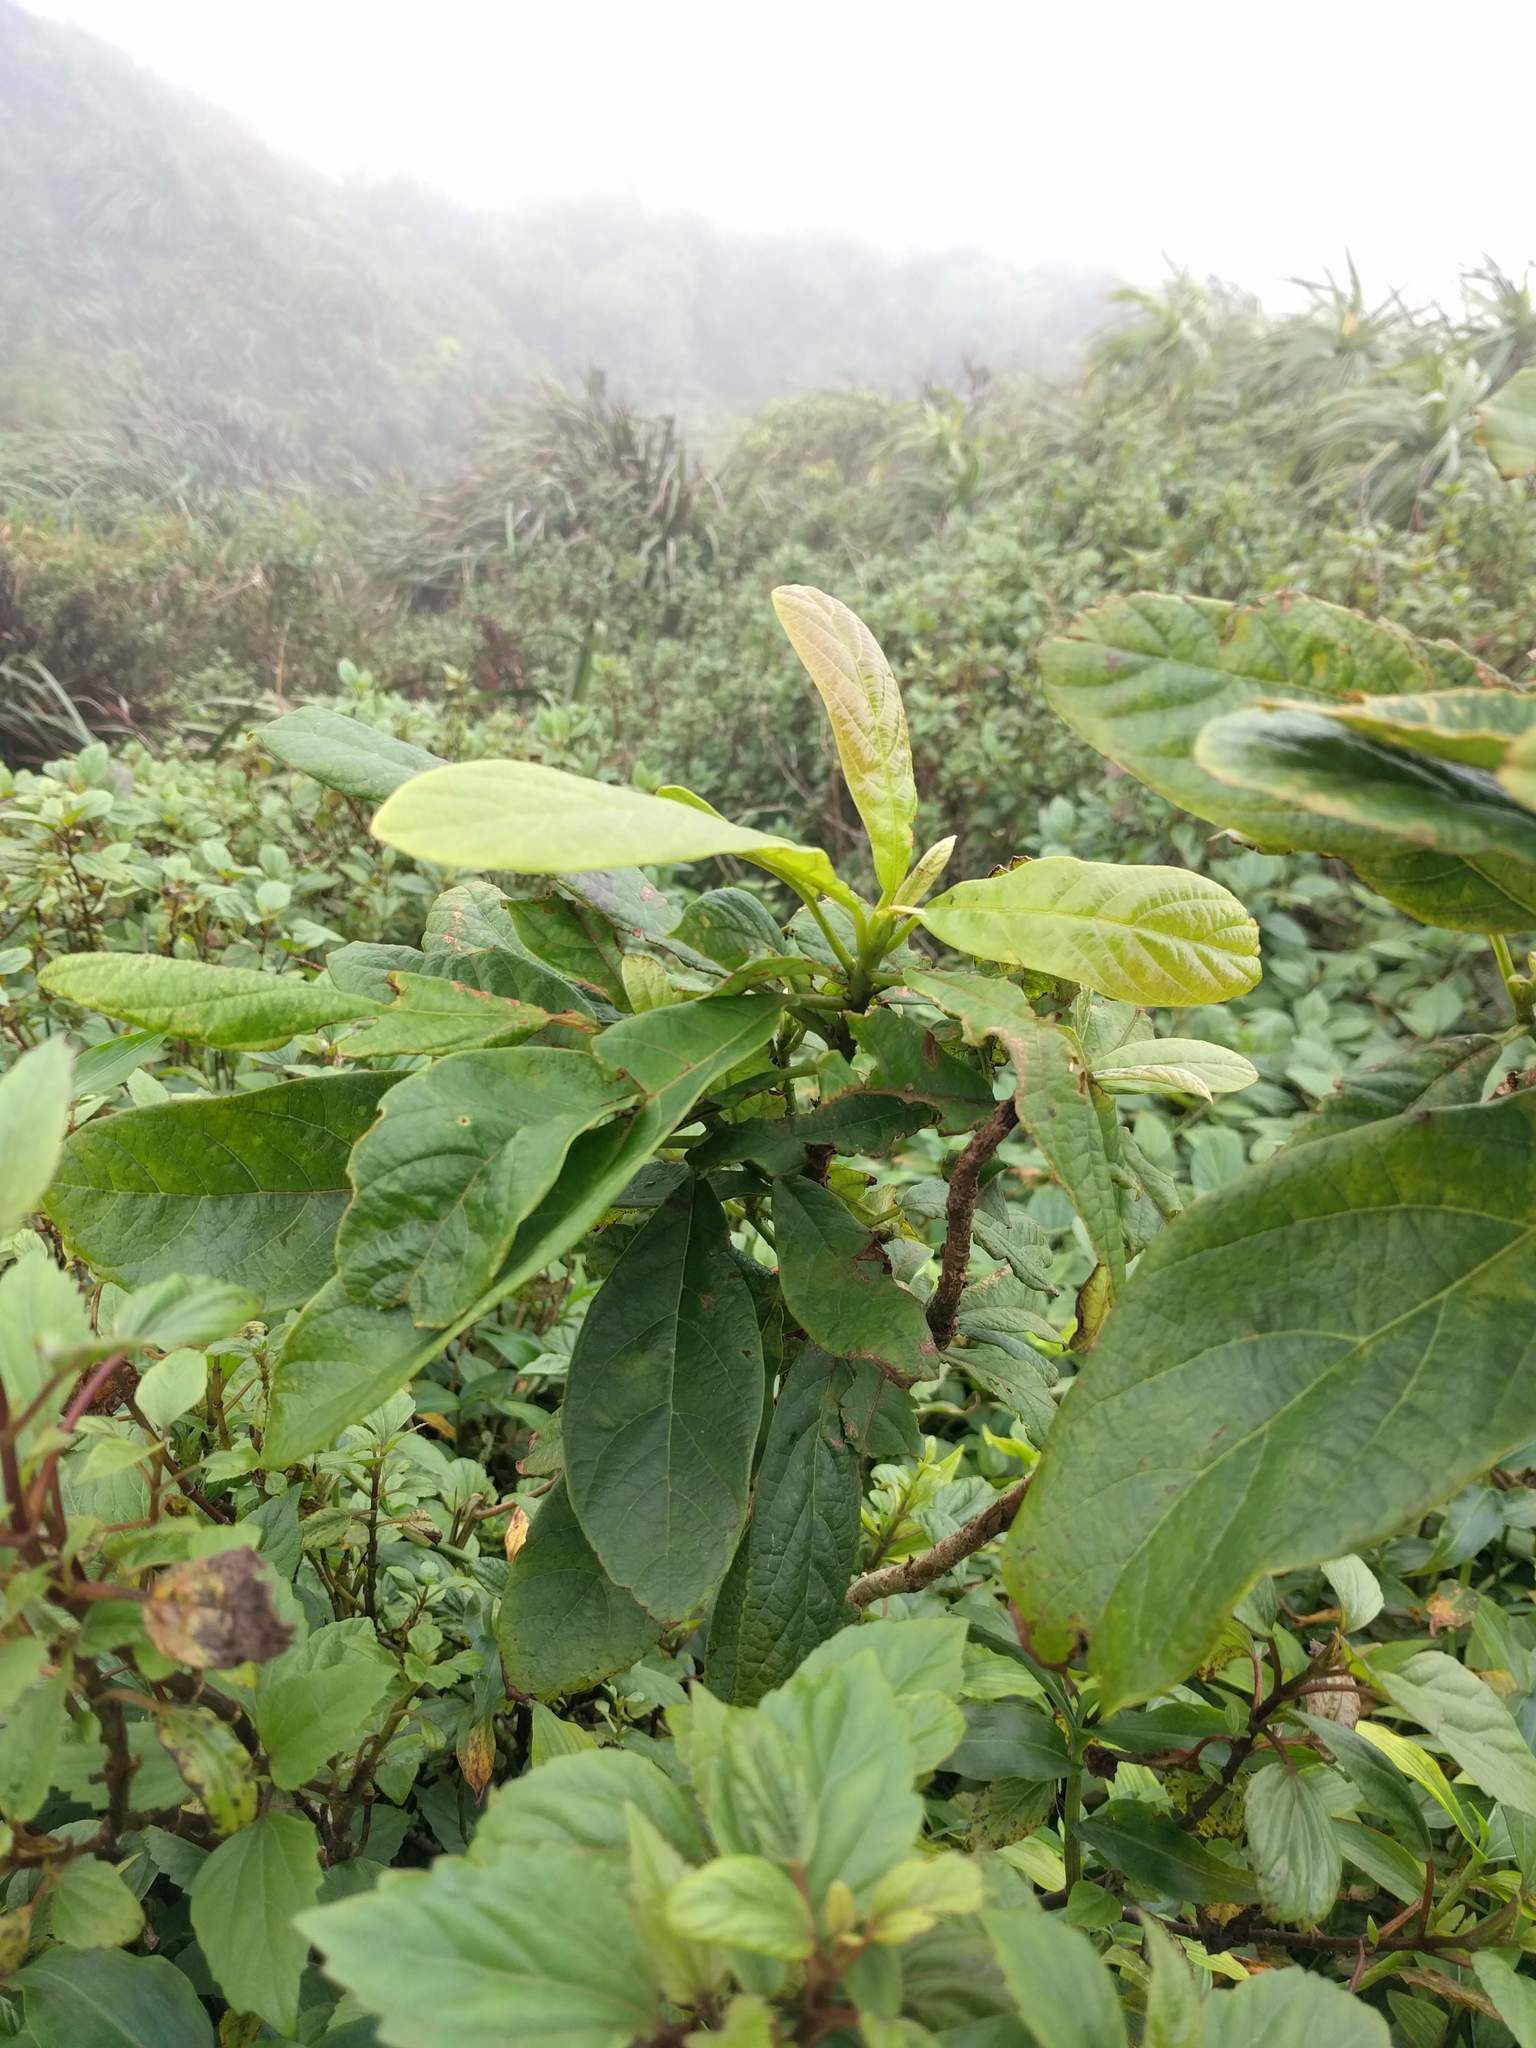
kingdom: Plantae
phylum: Tracheophyta
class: Magnoliopsida
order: Laurales
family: Lauraceae
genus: Persea
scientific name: Persea americana
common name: Avocado
